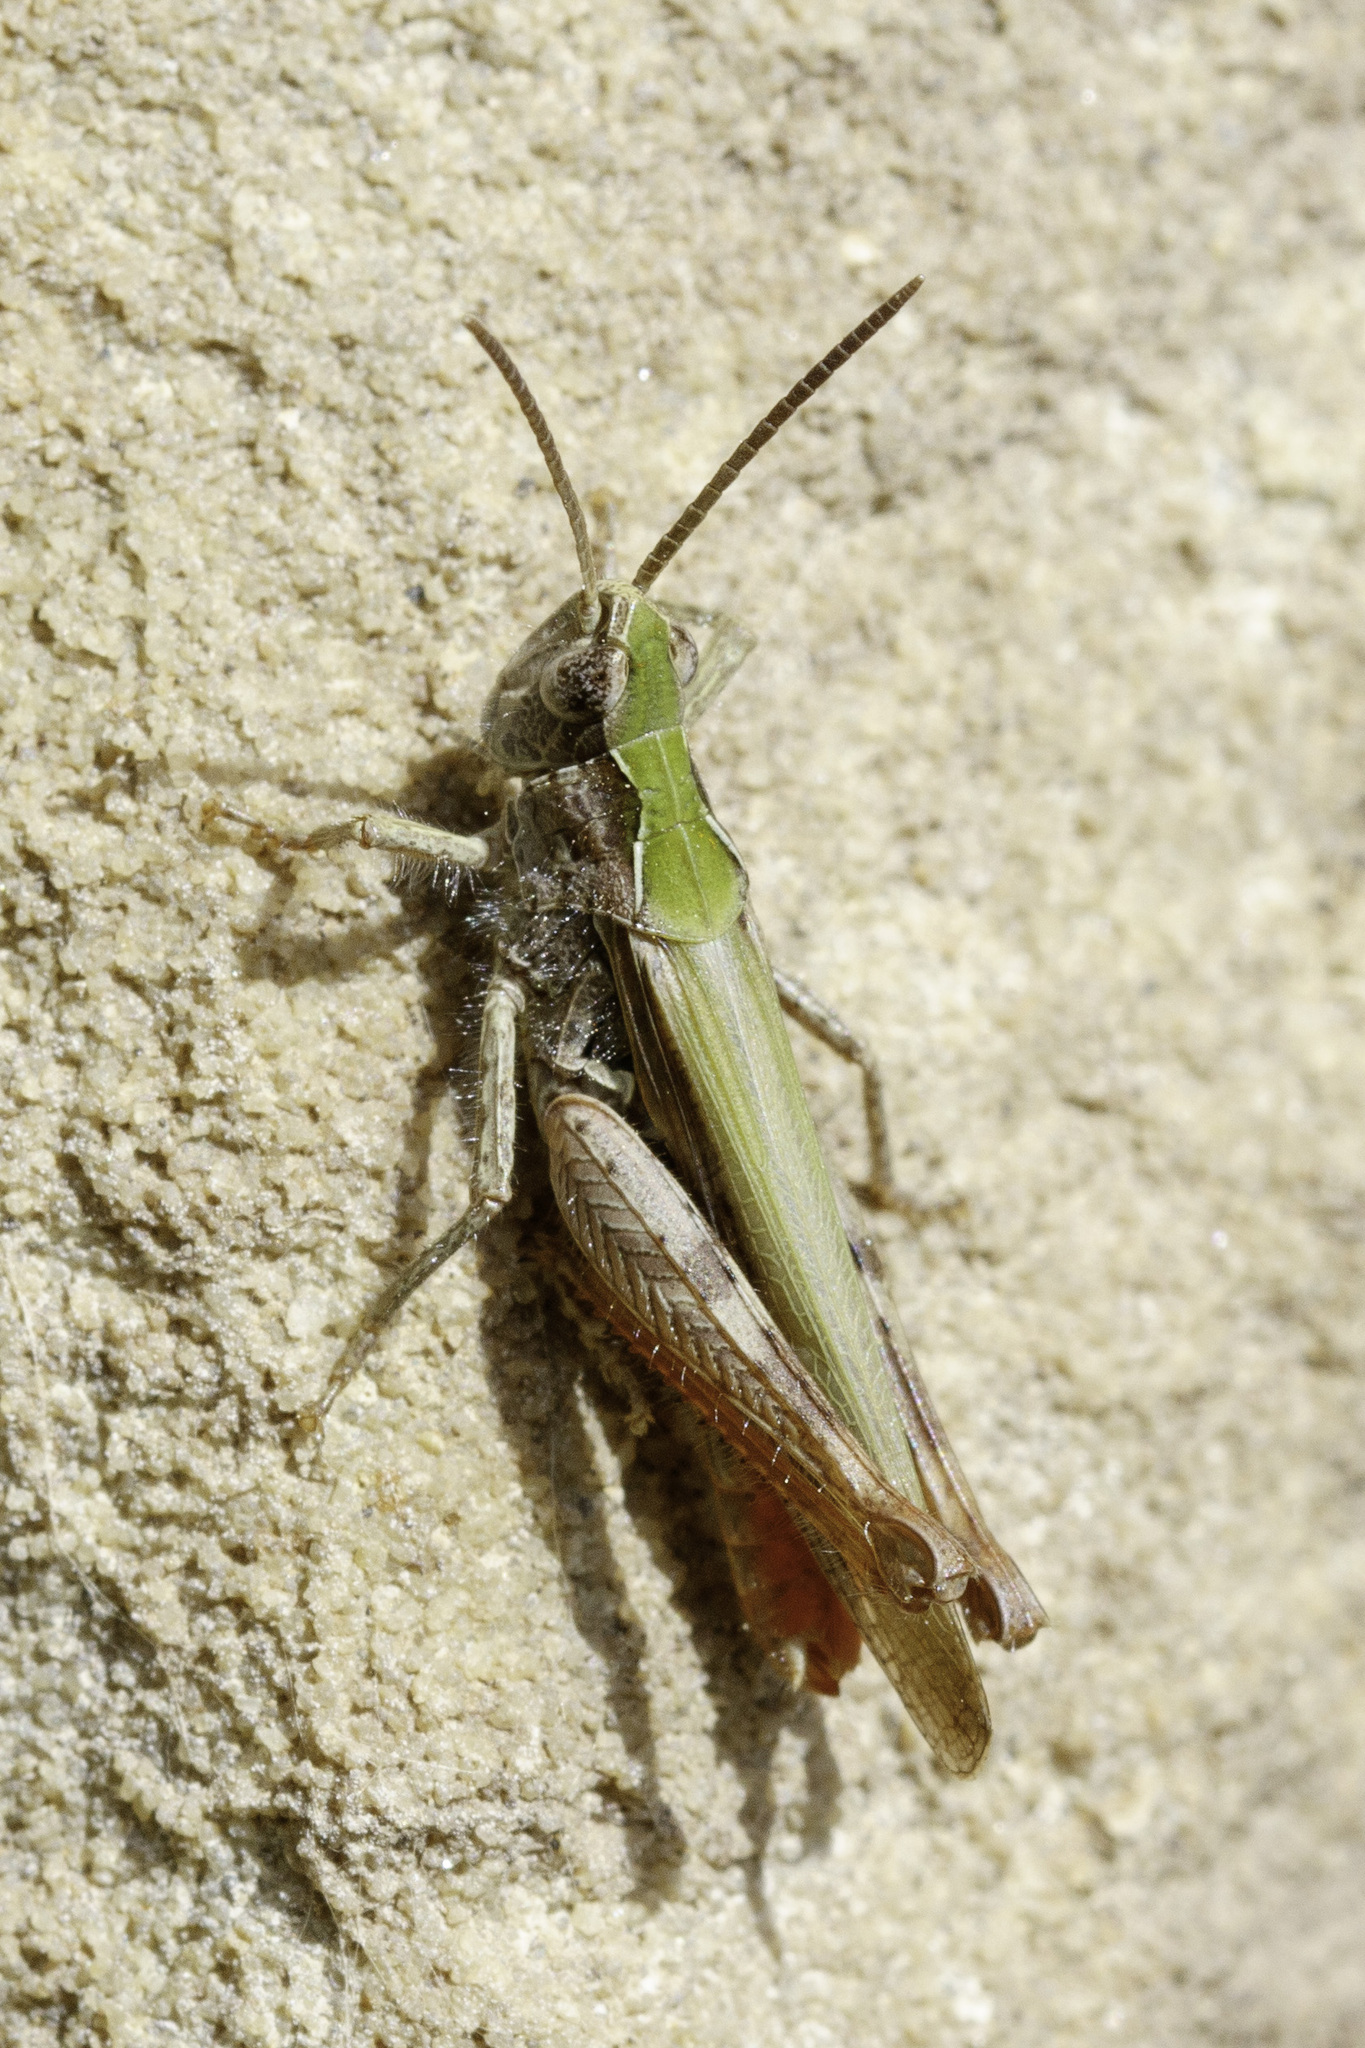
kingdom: Animalia
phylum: Arthropoda
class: Insecta
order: Orthoptera
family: Acrididae
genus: Chorthippus
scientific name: Chorthippus brunneus
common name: Field grasshopper
